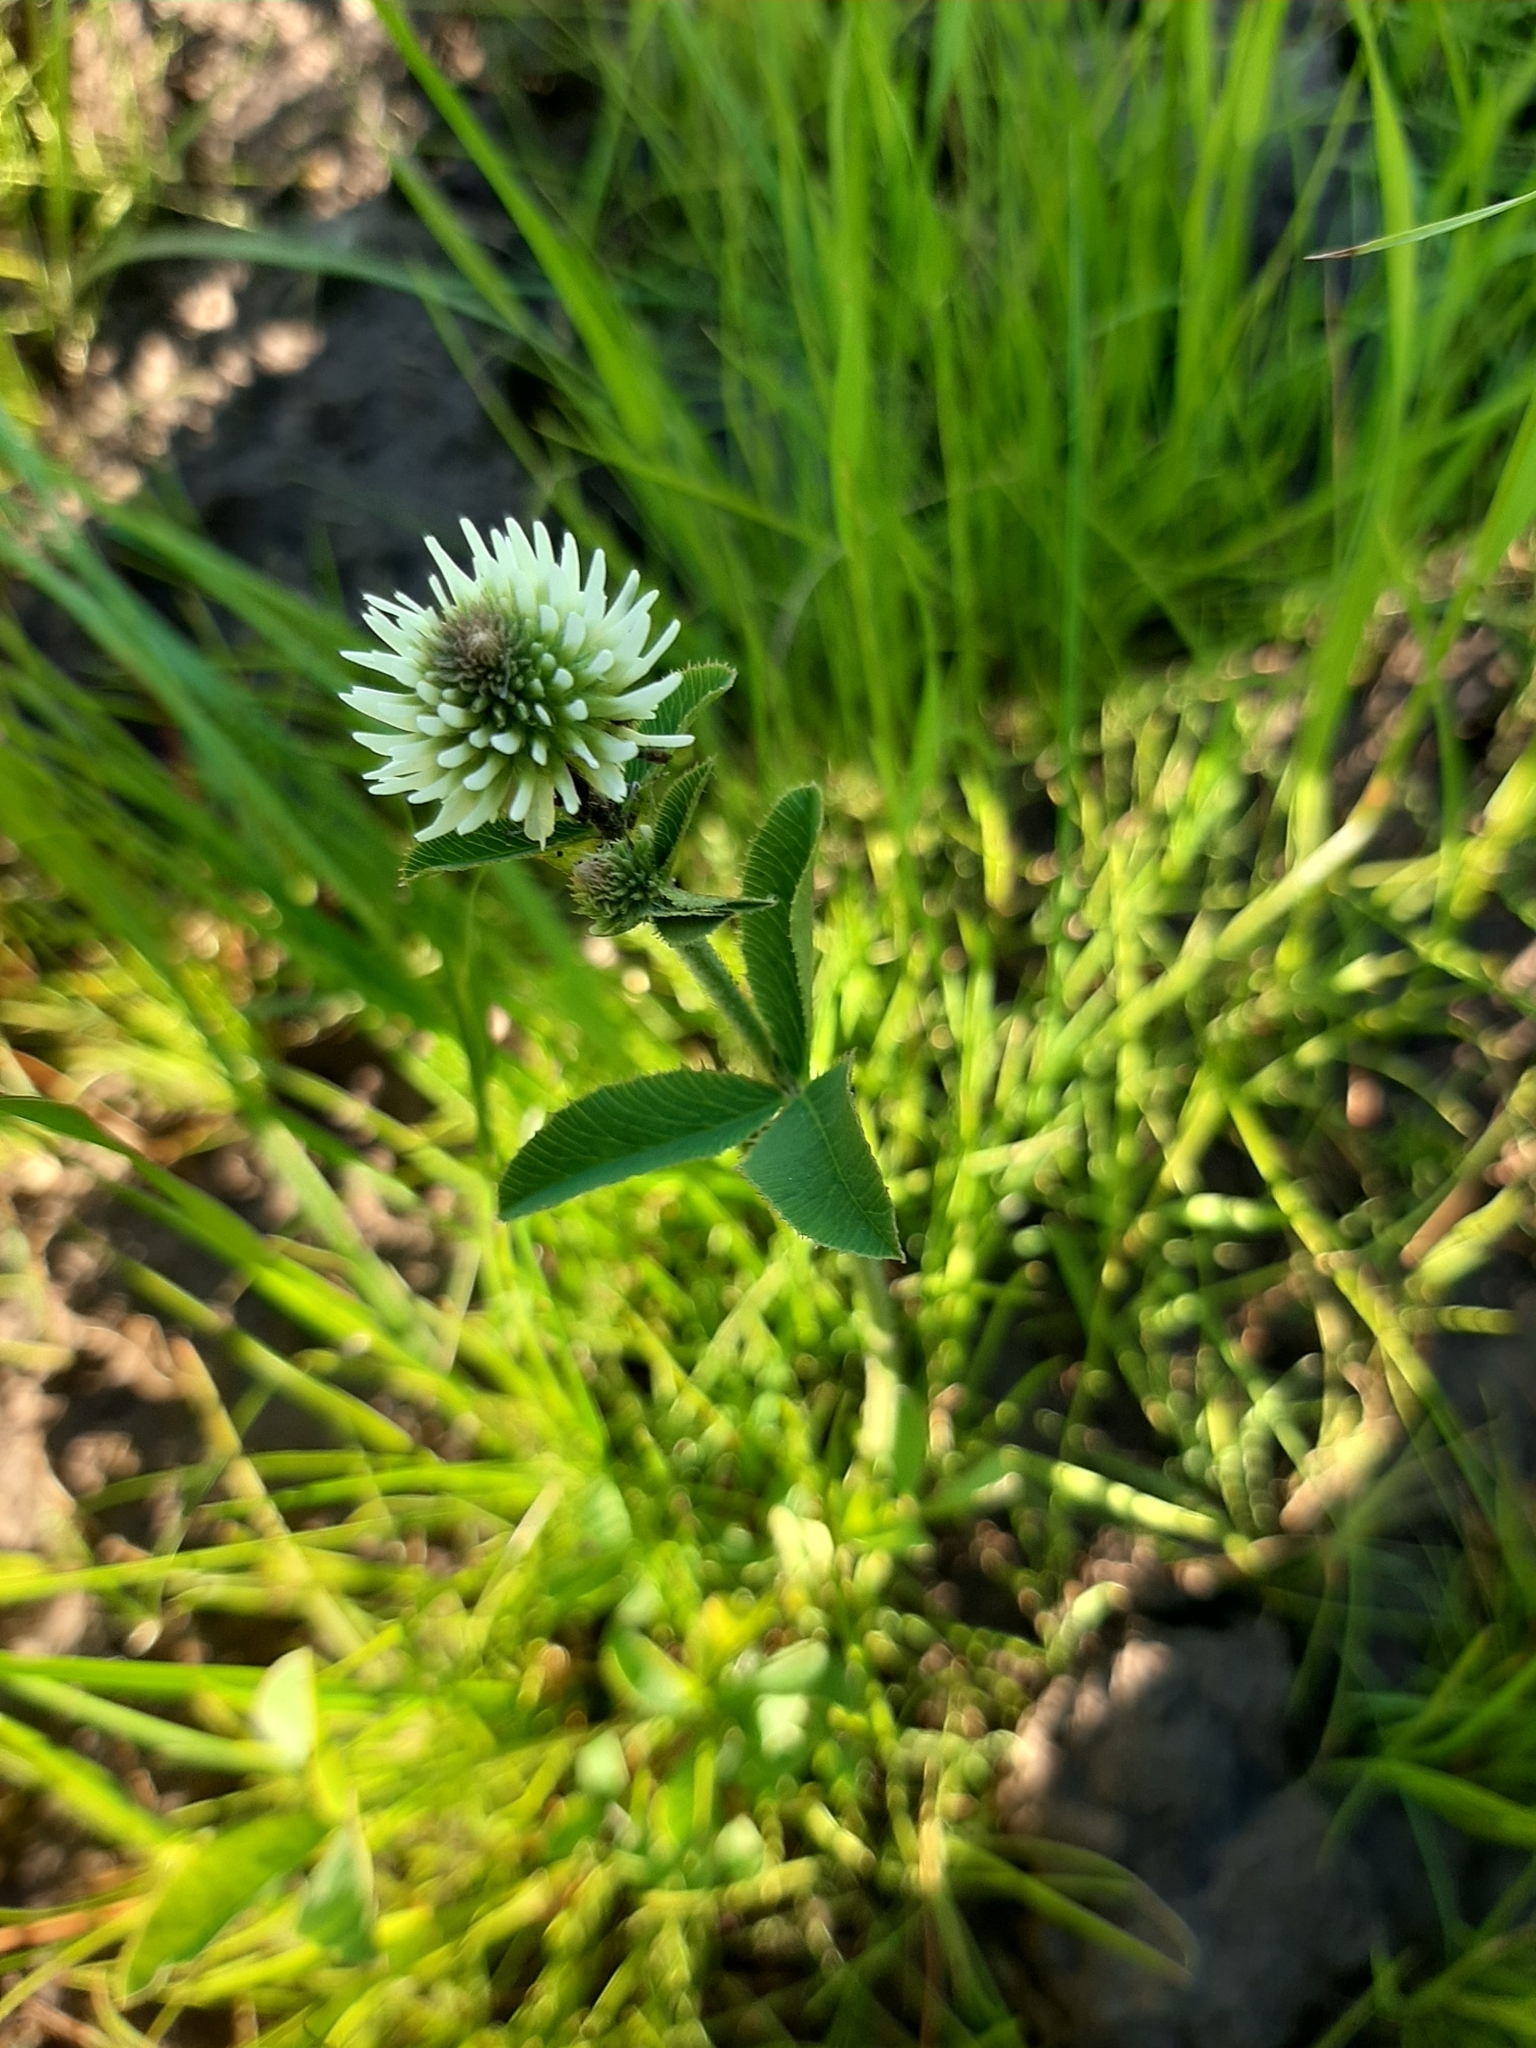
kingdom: Plantae
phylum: Tracheophyta
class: Magnoliopsida
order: Fabales
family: Fabaceae
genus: Trifolium
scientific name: Trifolium montanum
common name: Mountain clover
